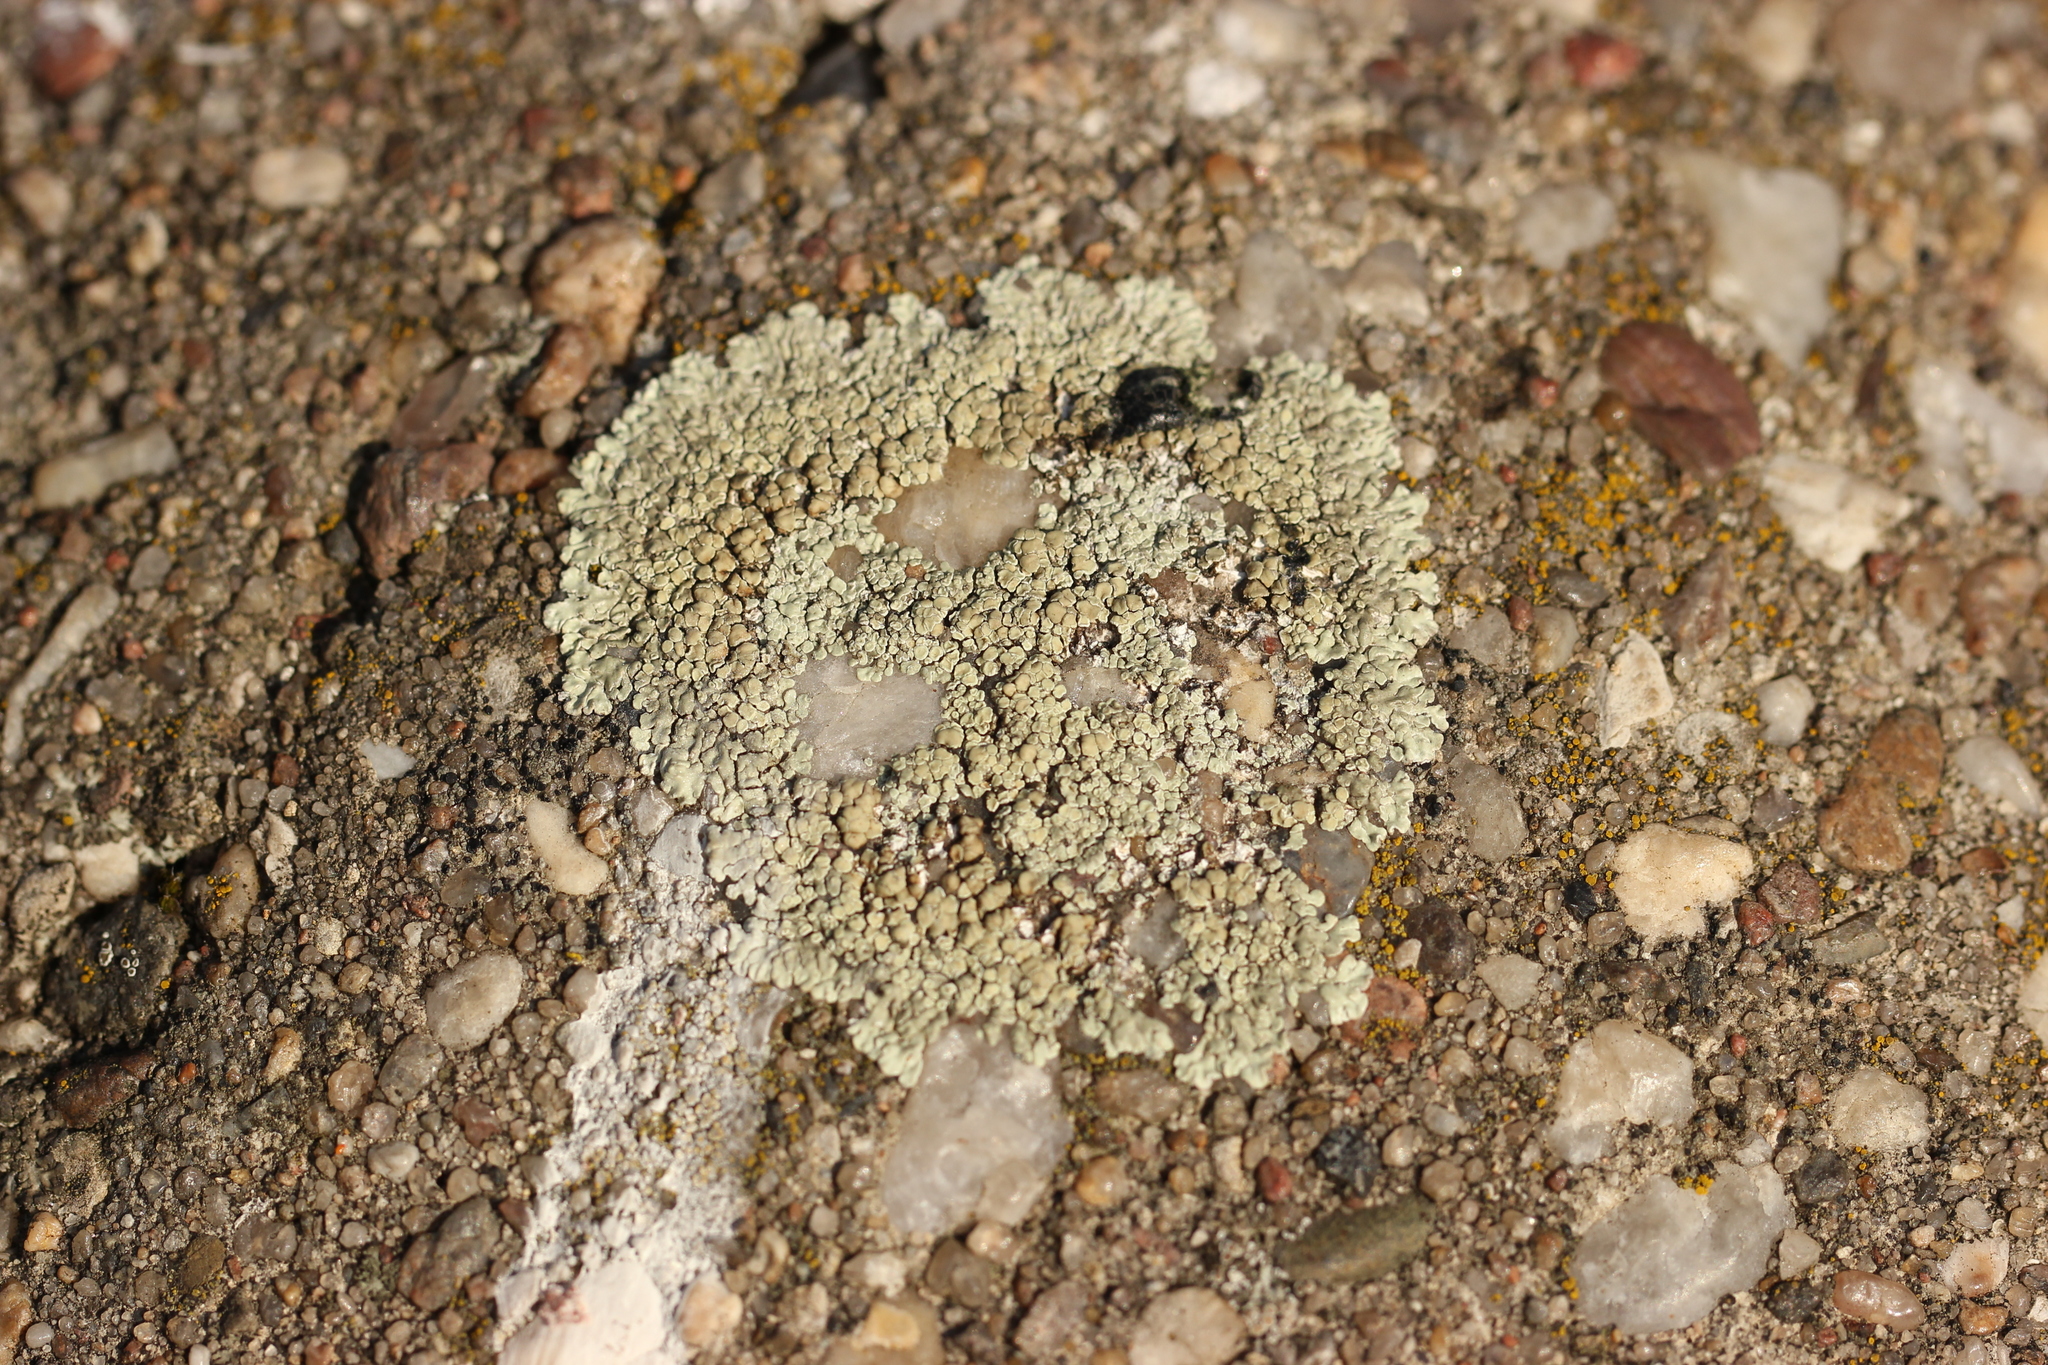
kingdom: Fungi
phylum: Ascomycota
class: Lecanoromycetes
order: Lecanorales
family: Lecanoraceae
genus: Protoparmeliopsis
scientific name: Protoparmeliopsis muralis
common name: Stonewall rim lichen
